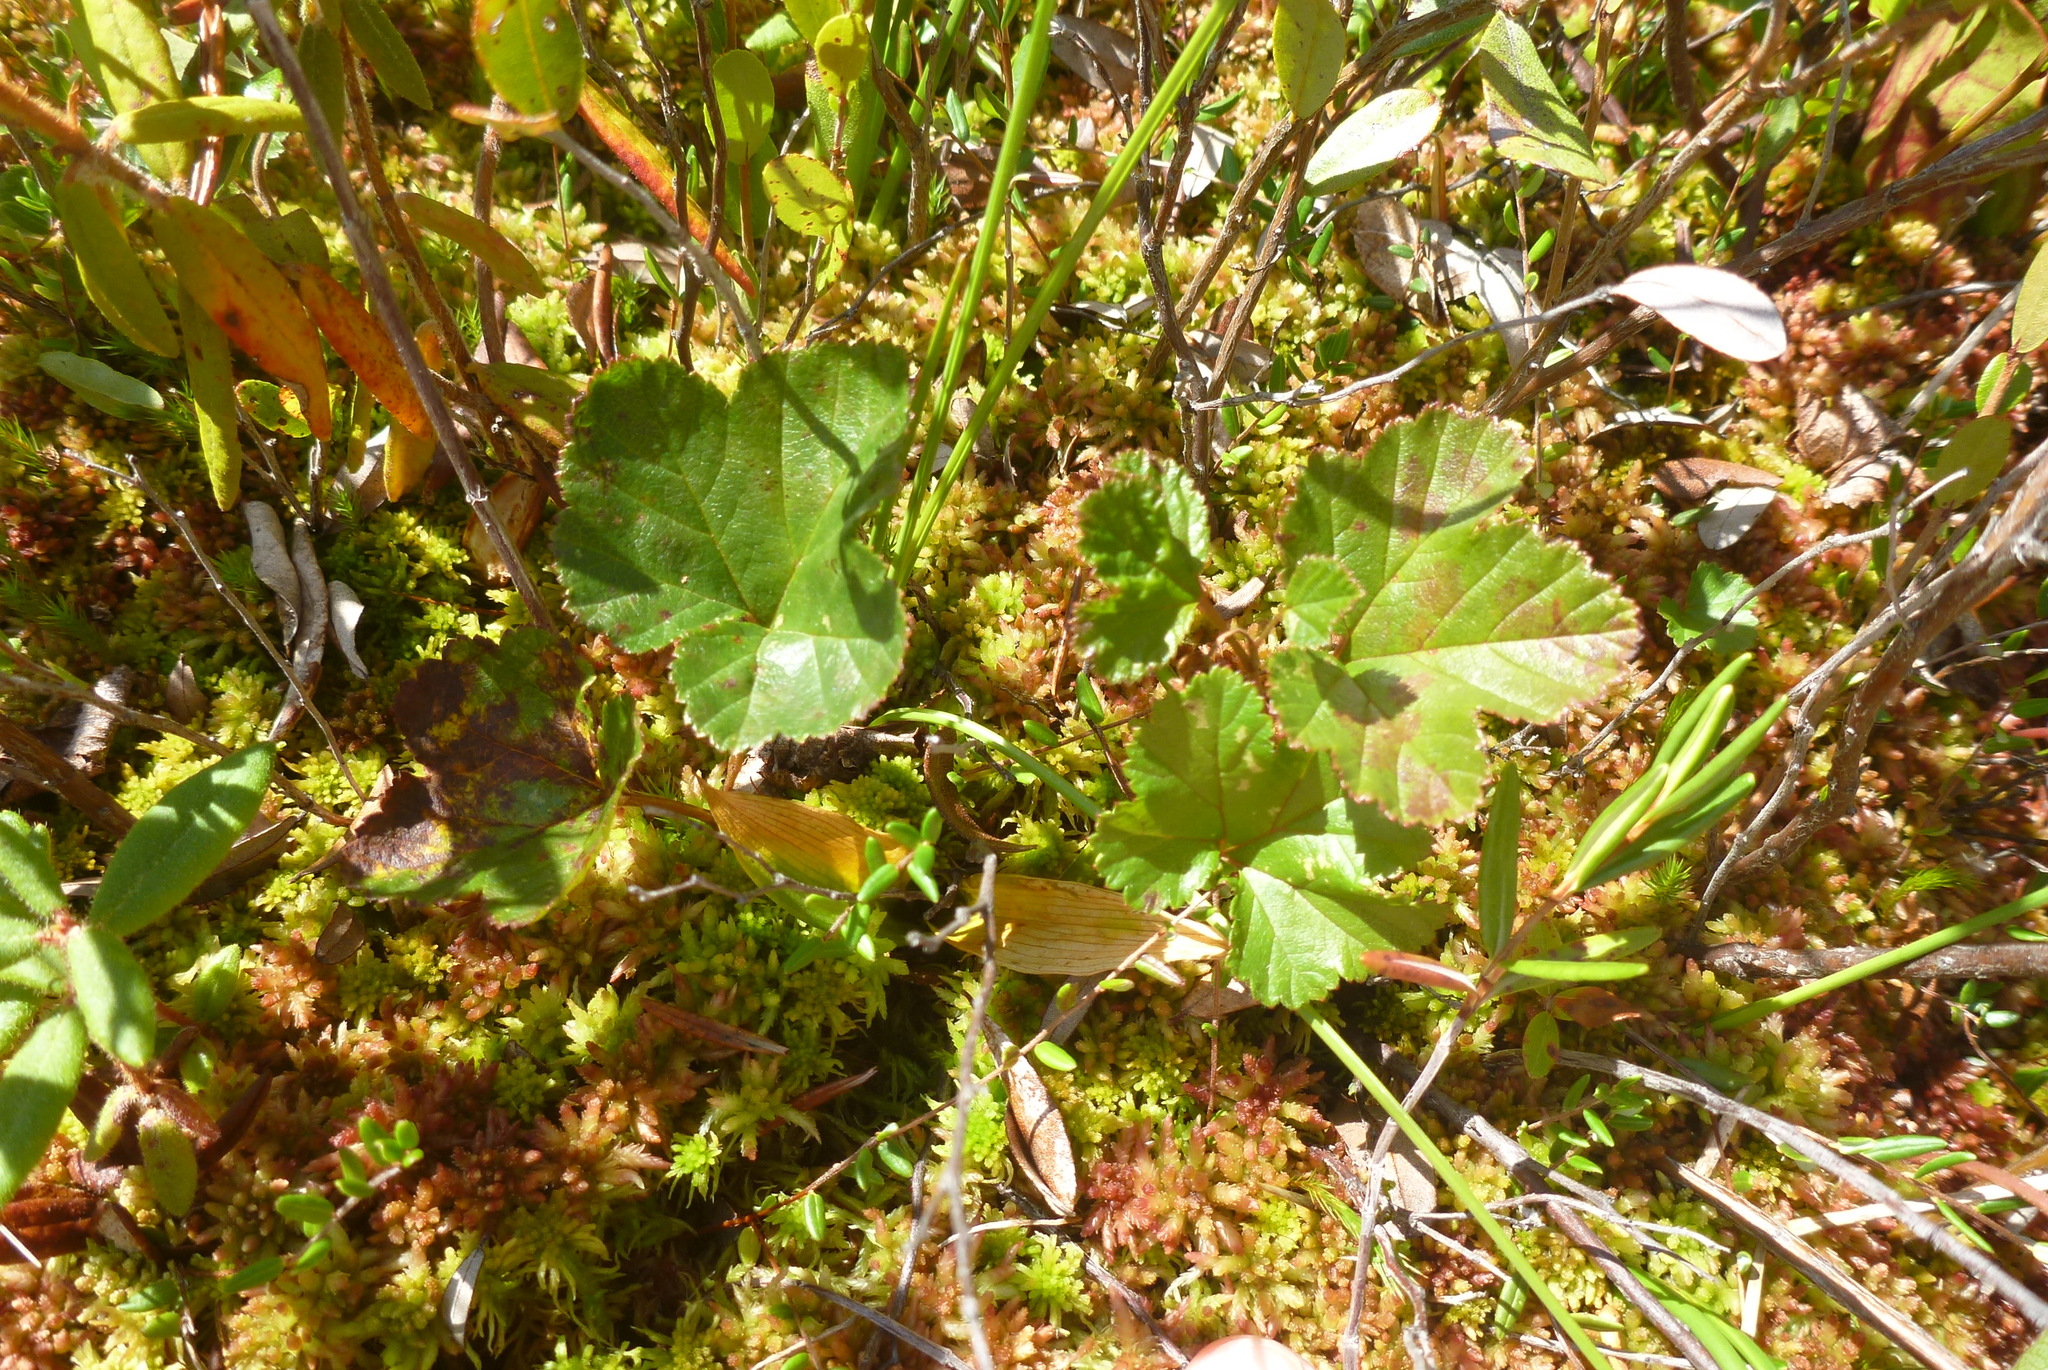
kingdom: Plantae
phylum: Tracheophyta
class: Magnoliopsida
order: Rosales
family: Rosaceae
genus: Rubus
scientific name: Rubus chamaemorus
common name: Cloudberry
